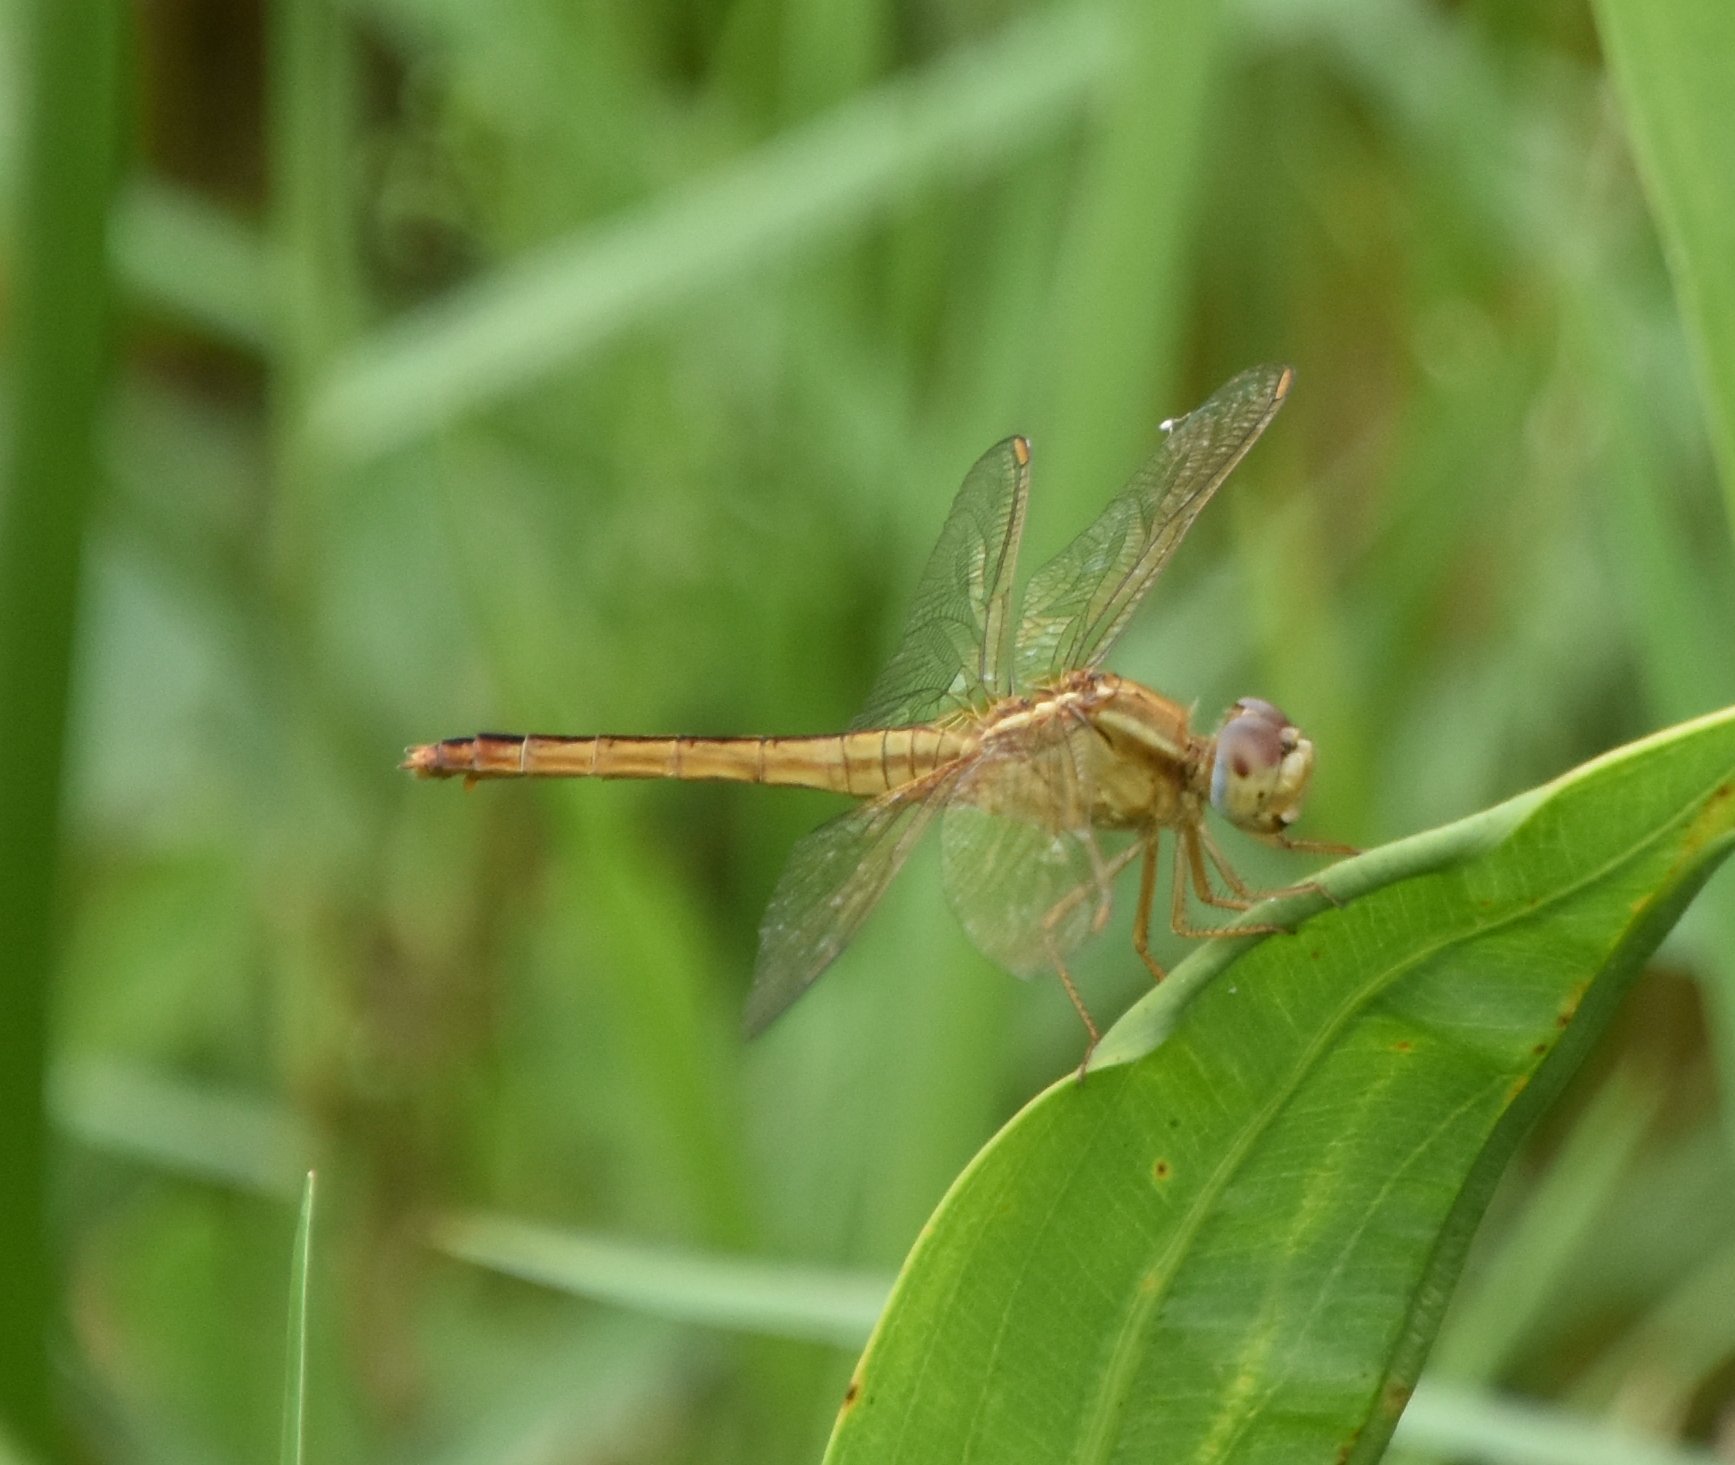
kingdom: Animalia
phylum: Arthropoda
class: Insecta
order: Odonata
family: Libellulidae
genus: Crocothemis
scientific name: Crocothemis servilia
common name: Scarlet skimmer
